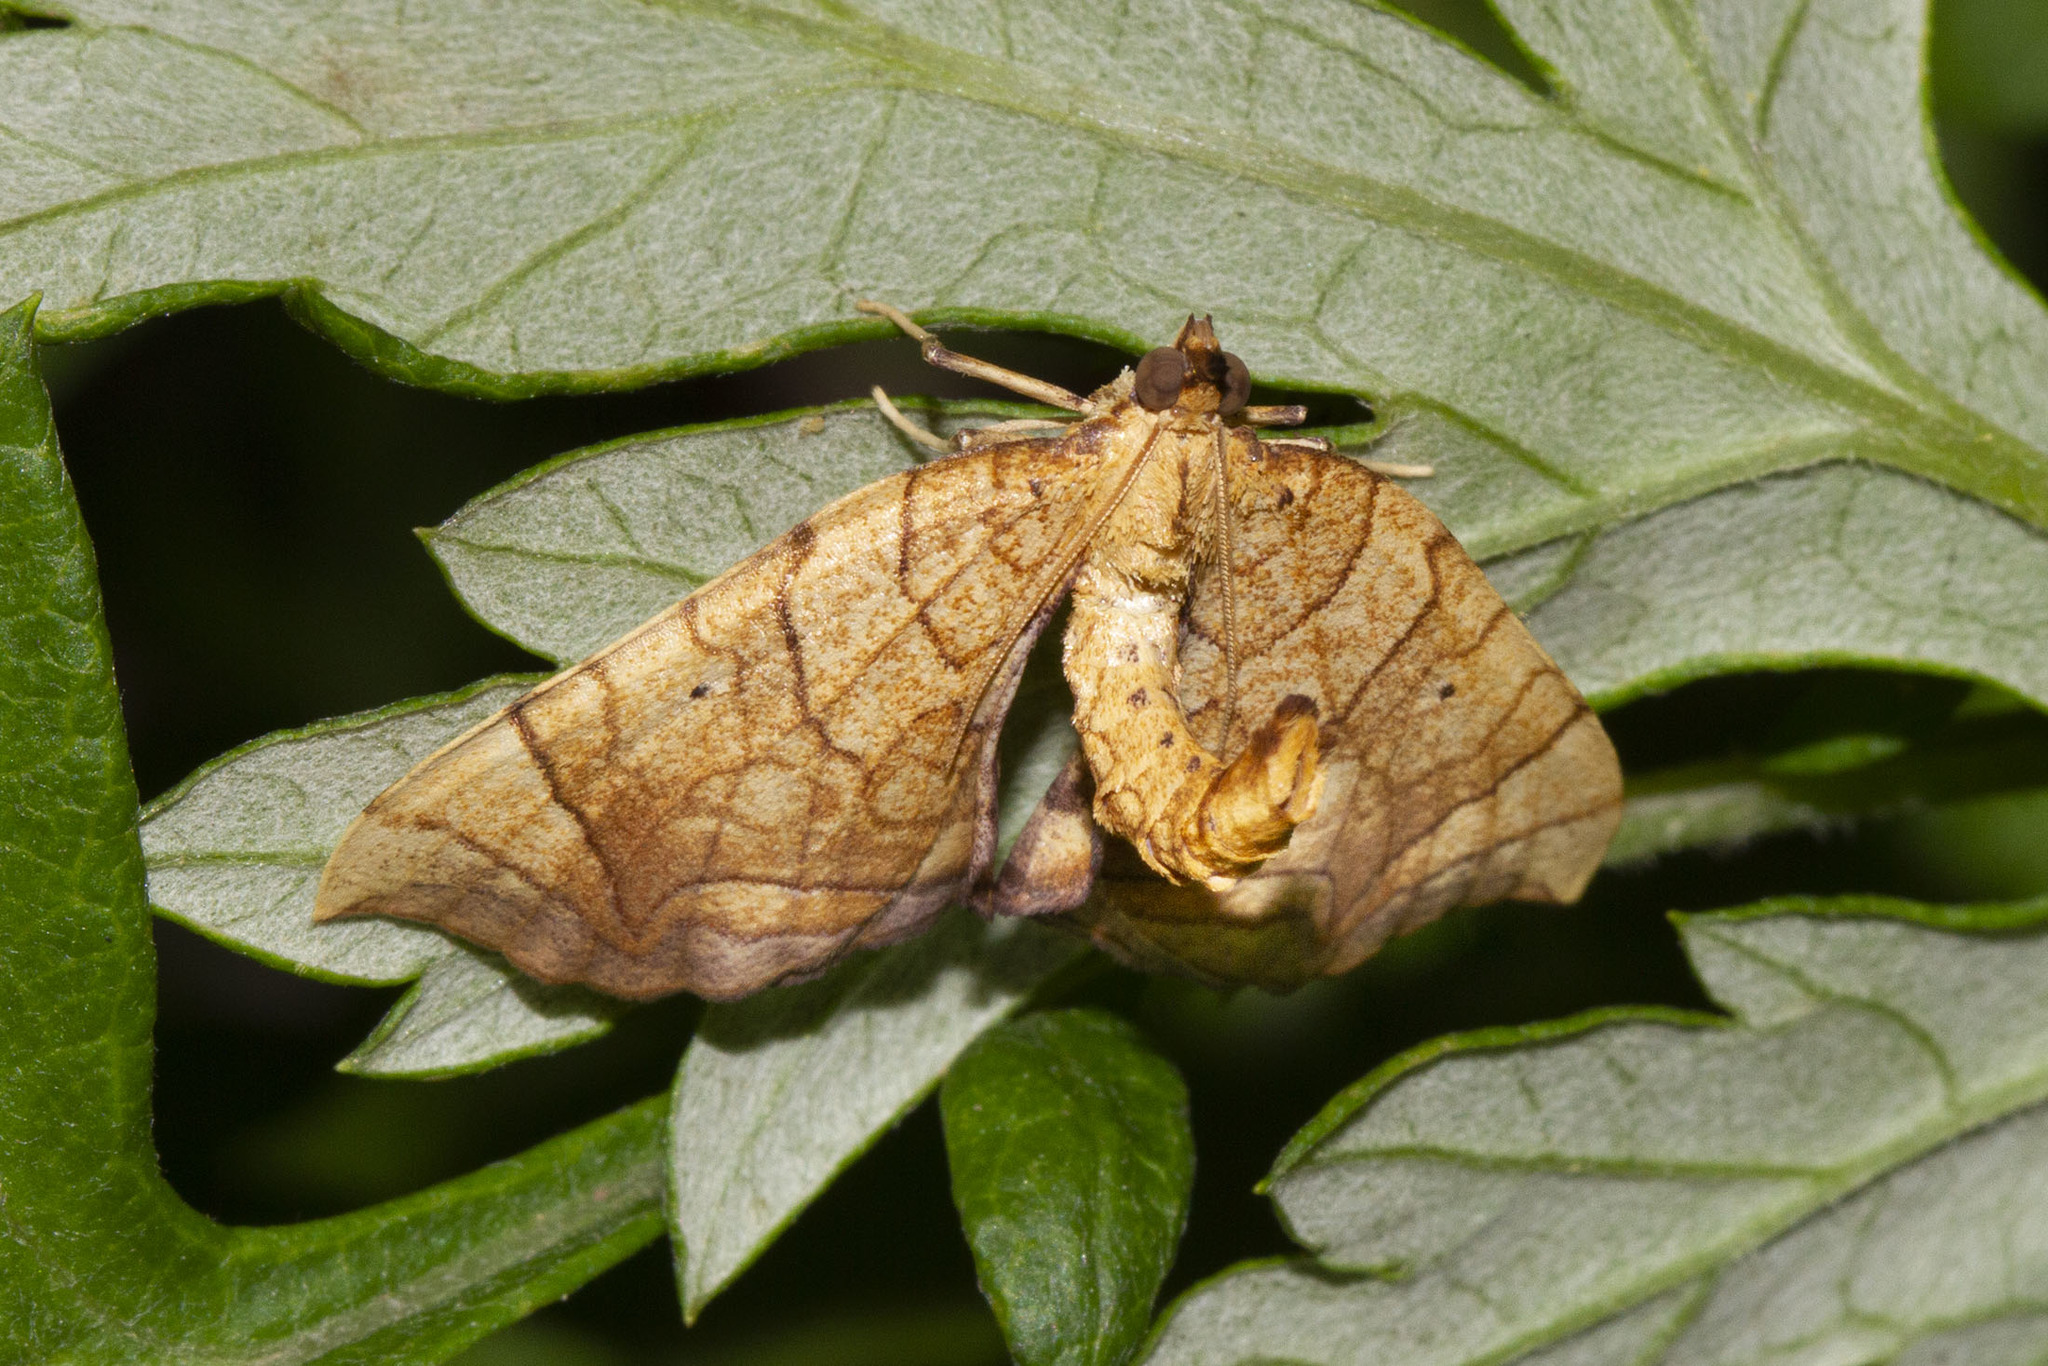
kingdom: Animalia
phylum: Arthropoda
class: Insecta
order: Lepidoptera
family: Geometridae
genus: Eulithis
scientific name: Eulithis
